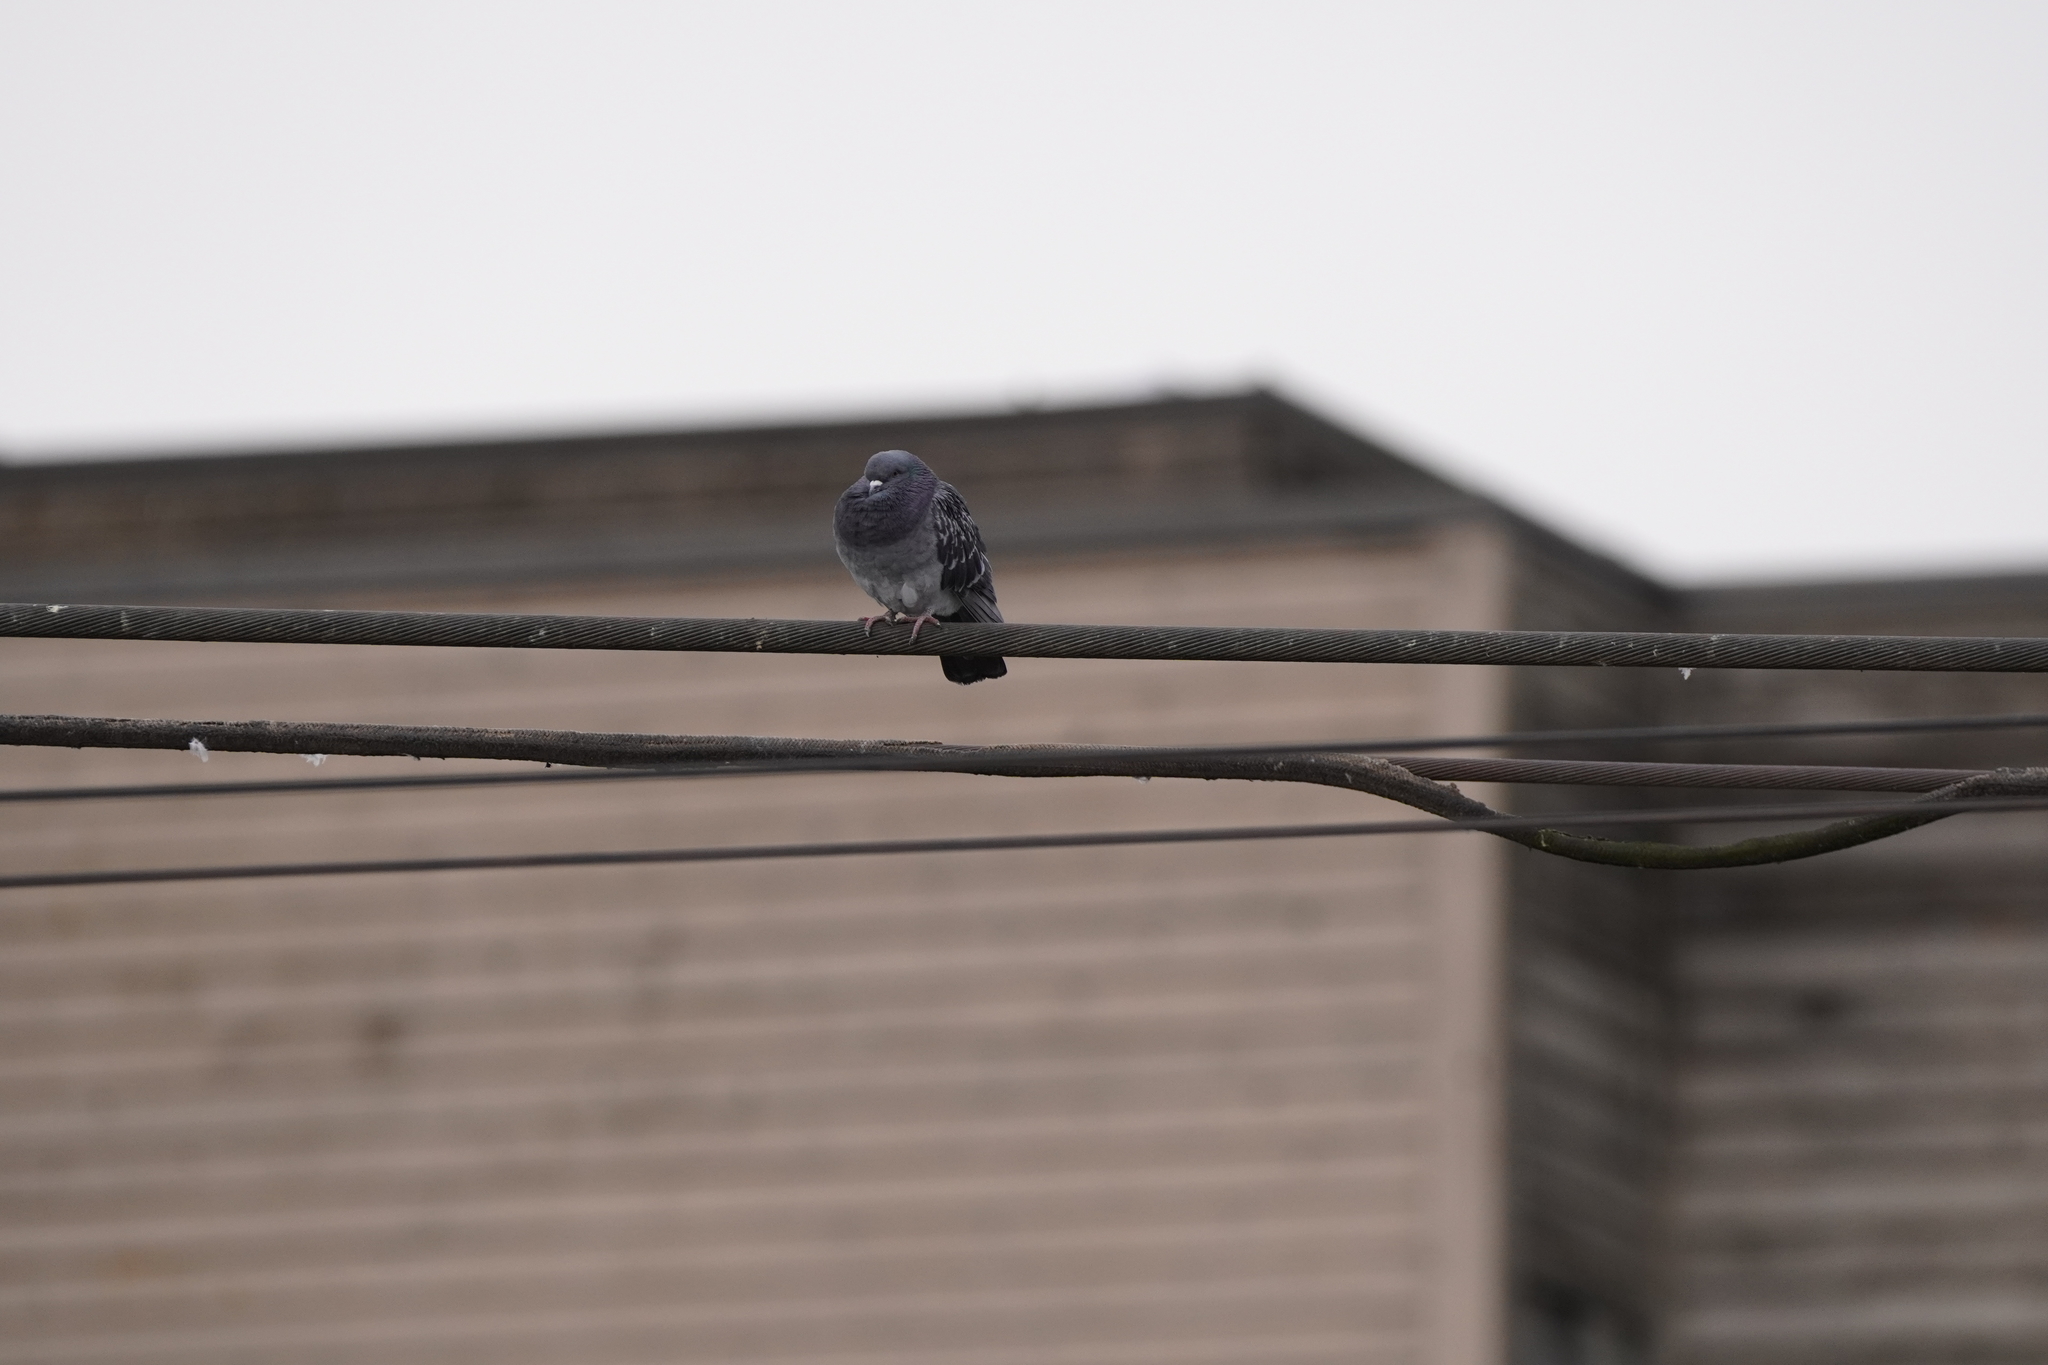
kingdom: Animalia
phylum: Chordata
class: Aves
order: Columbiformes
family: Columbidae
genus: Columba
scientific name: Columba livia
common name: Rock pigeon
